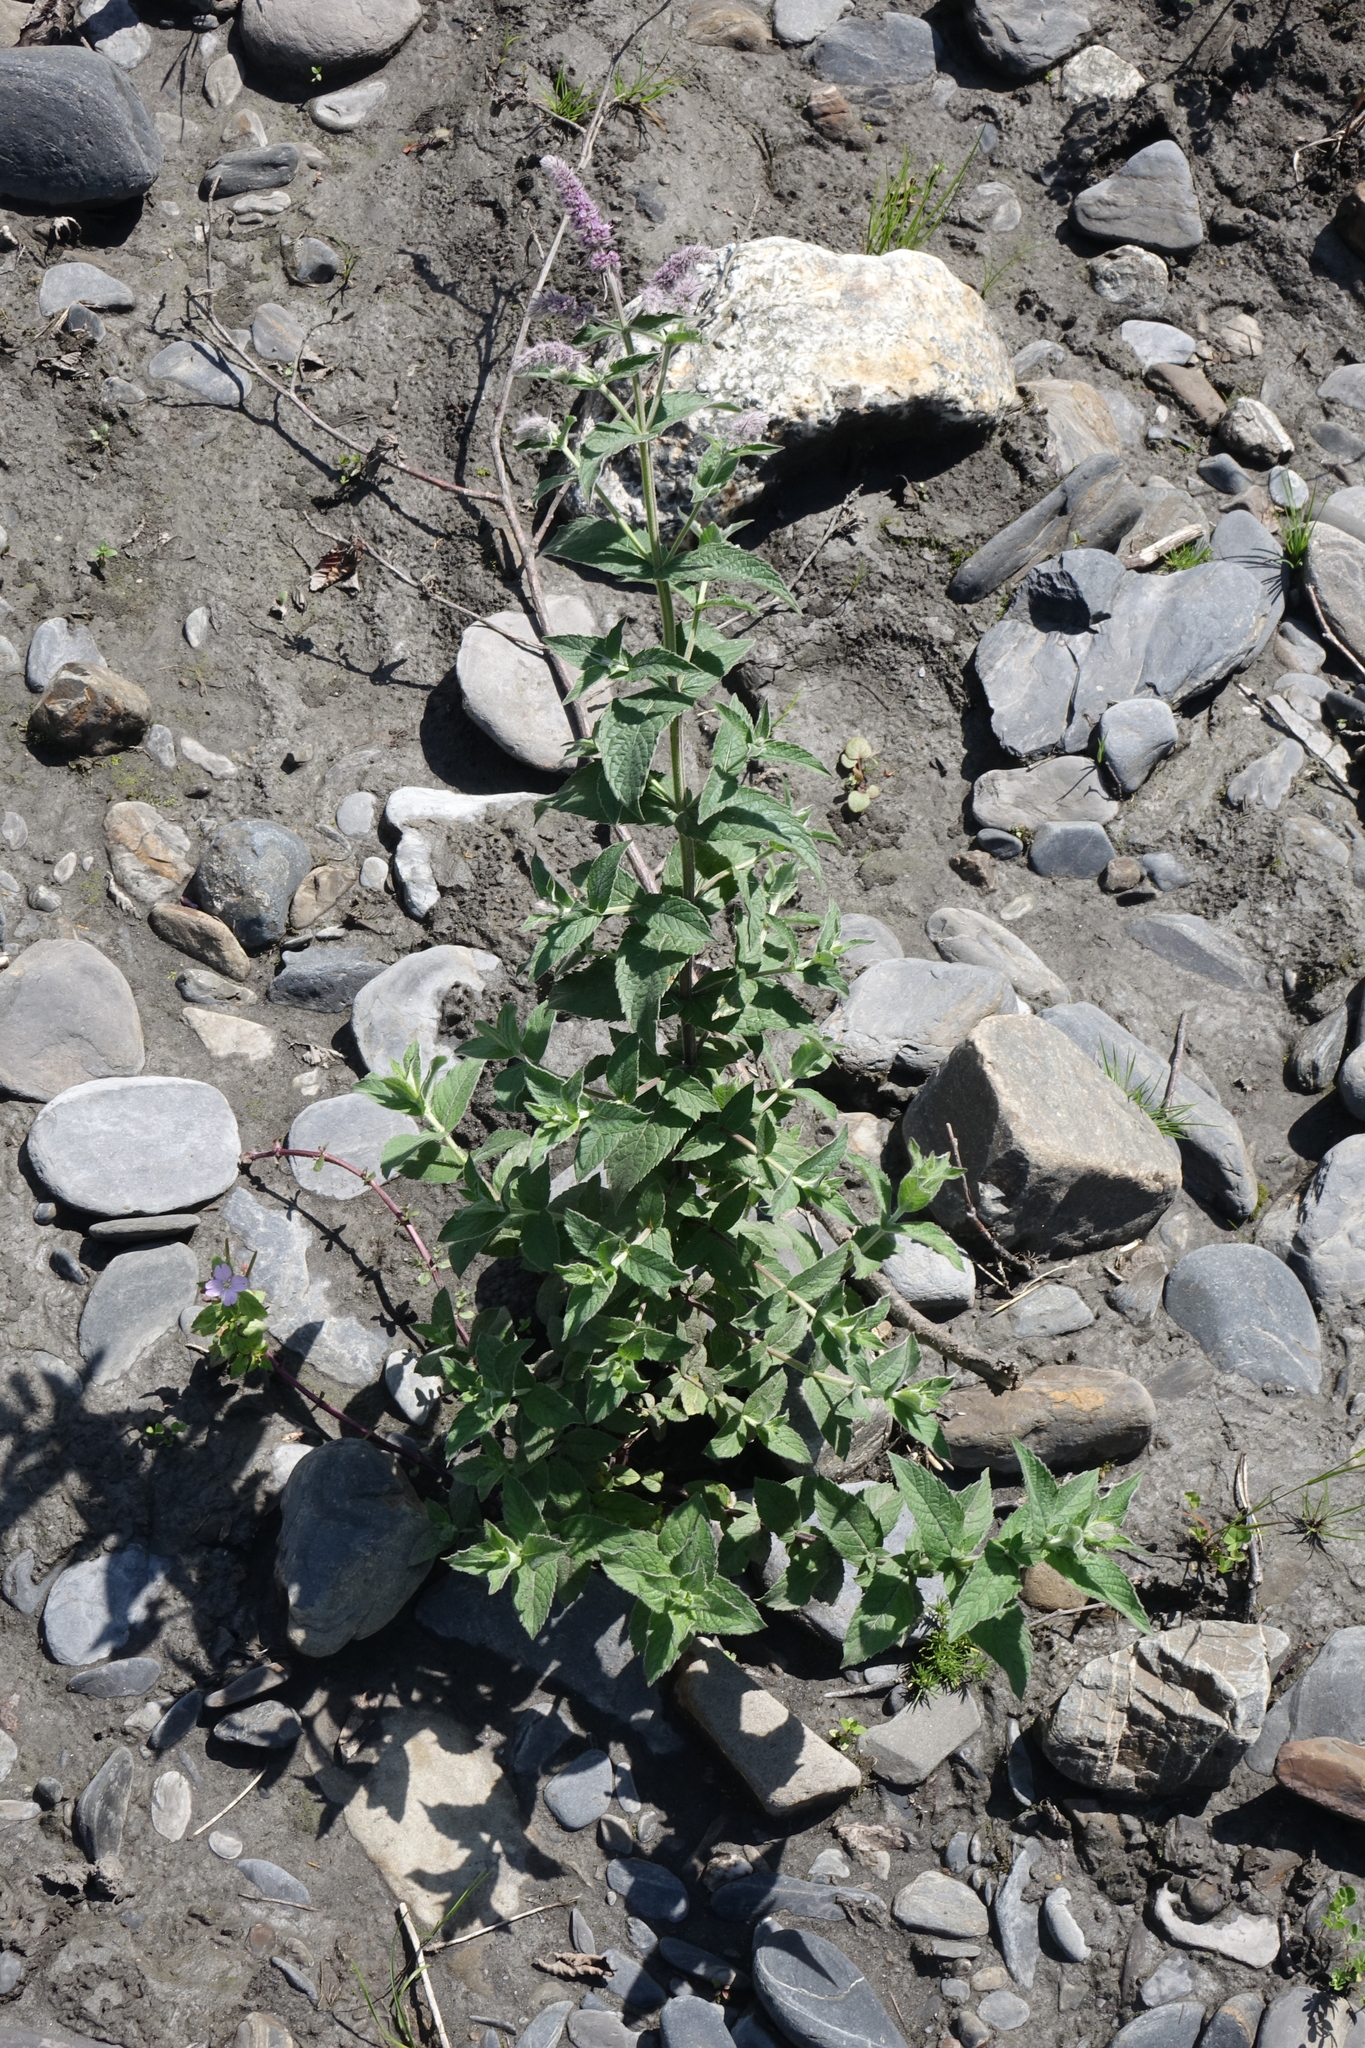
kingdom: Plantae
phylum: Tracheophyta
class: Magnoliopsida
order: Lamiales
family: Lamiaceae
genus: Mentha
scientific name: Mentha longifolia
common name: Horse mint
